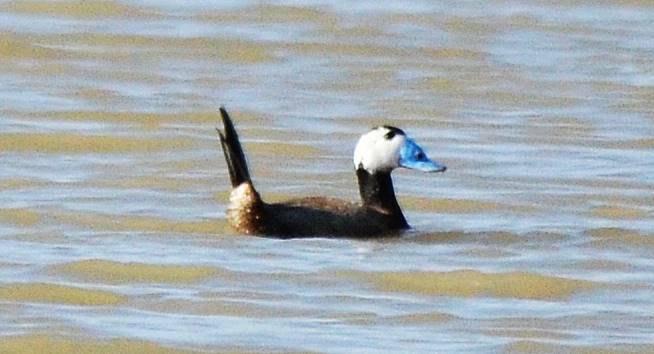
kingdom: Animalia
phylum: Chordata
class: Aves
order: Anseriformes
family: Anatidae
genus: Oxyura
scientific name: Oxyura leucocephala
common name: White-headed duck
